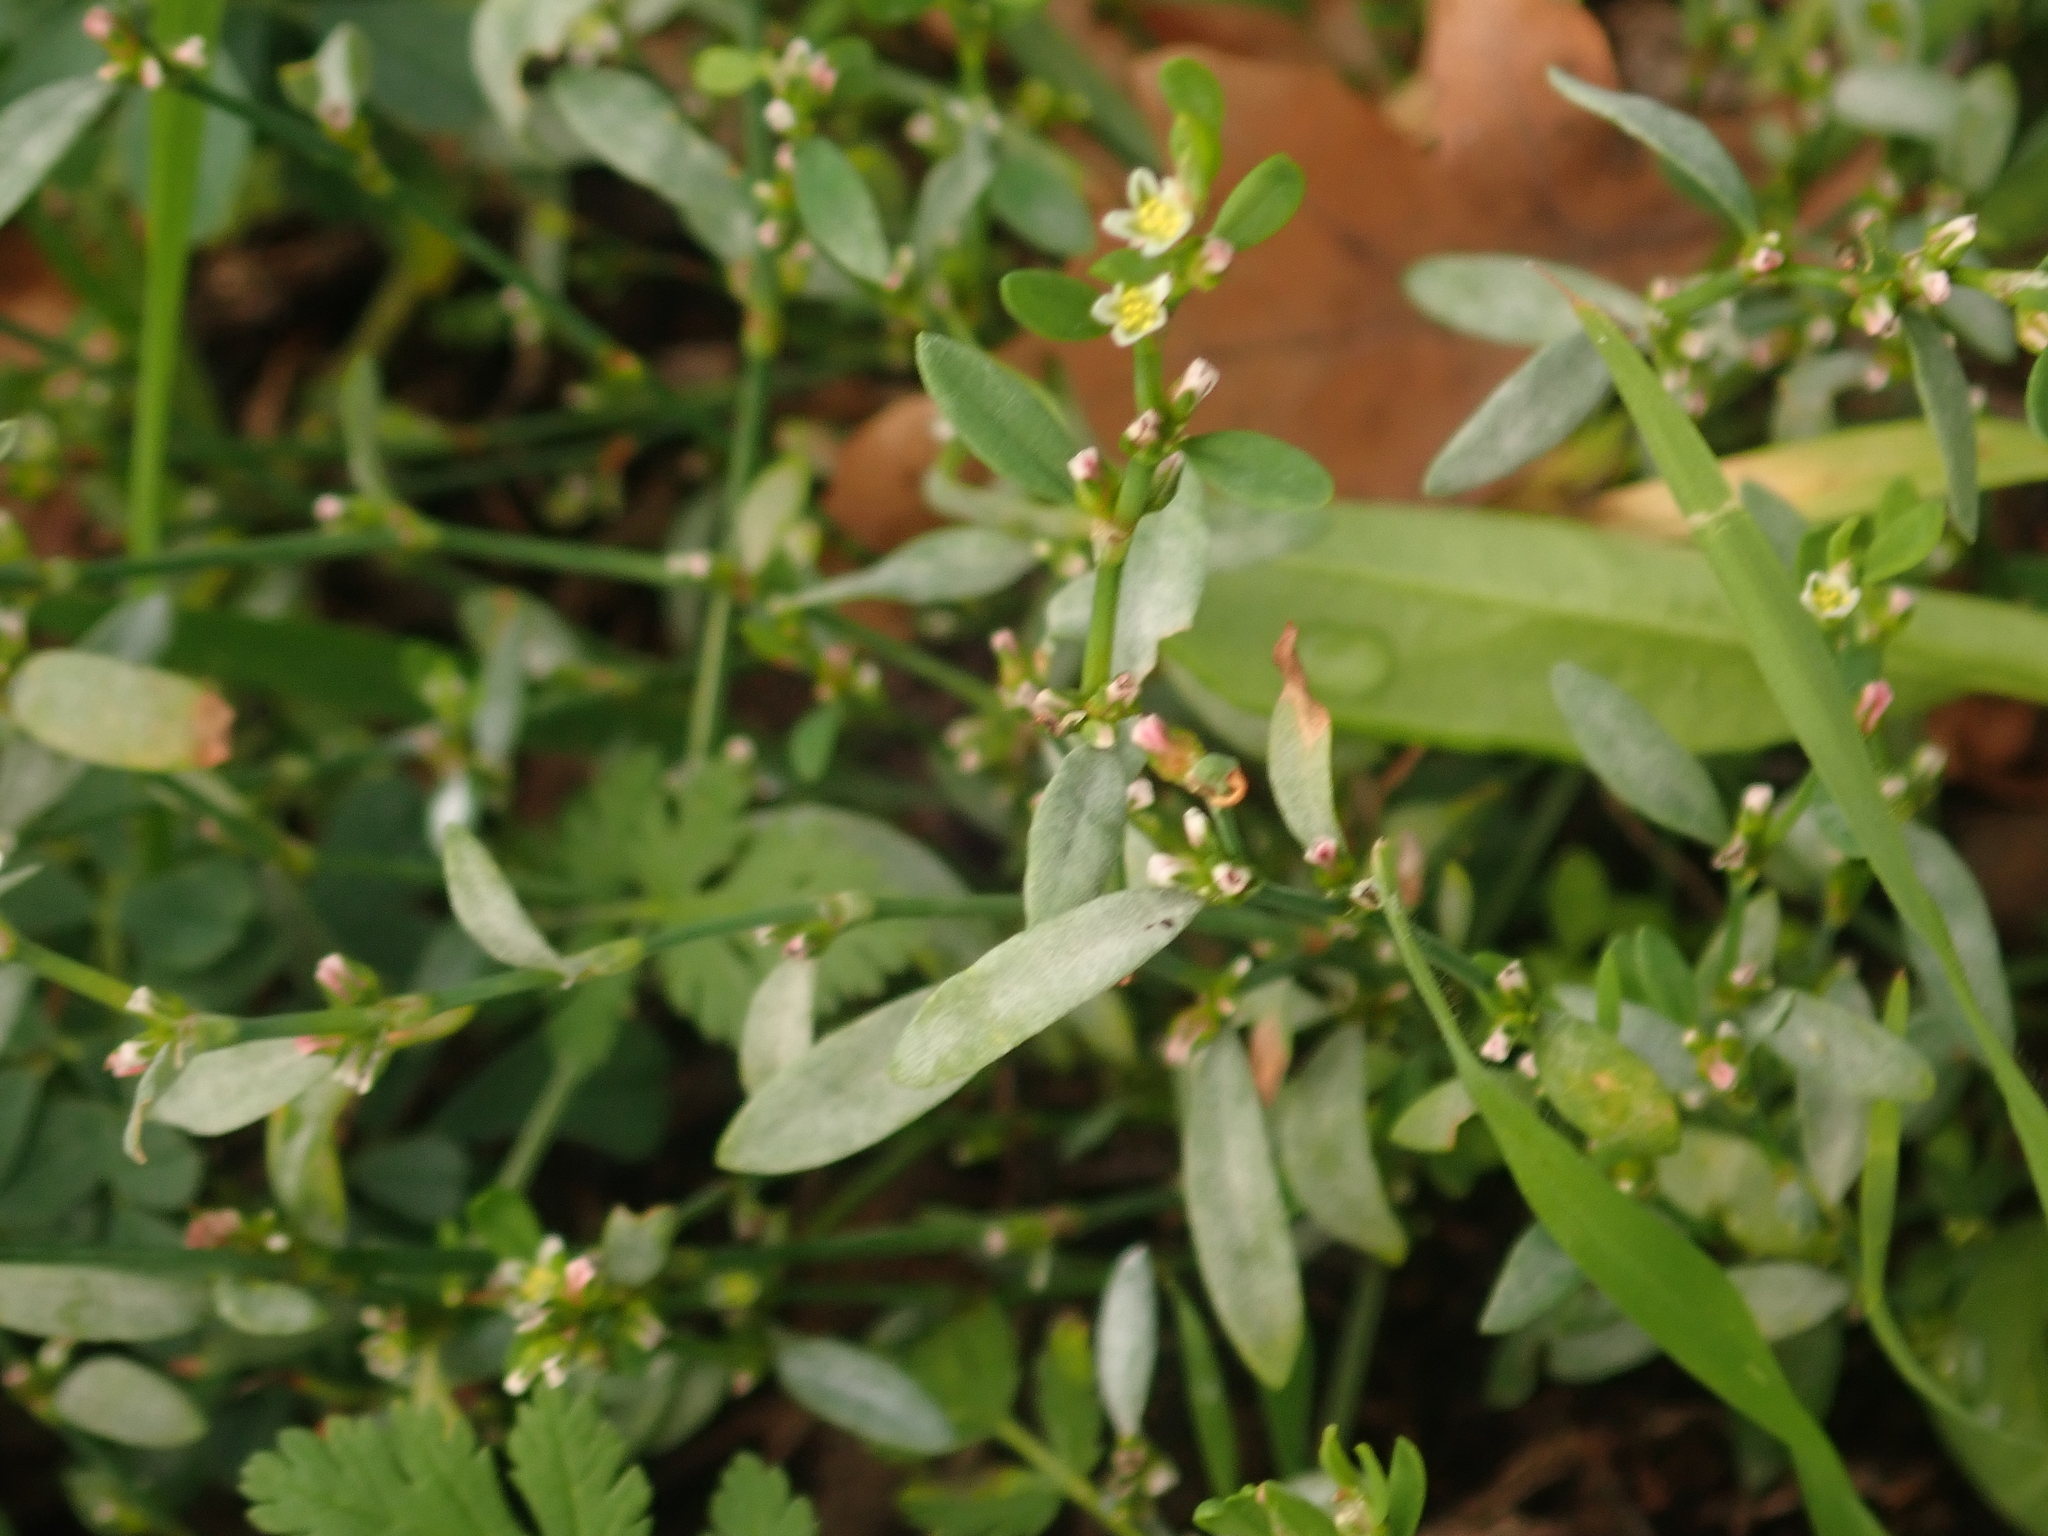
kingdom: Fungi
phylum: Ascomycota
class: Leotiomycetes
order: Helotiales
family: Erysiphaceae
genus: Erysiphe
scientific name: Erysiphe polygoni
